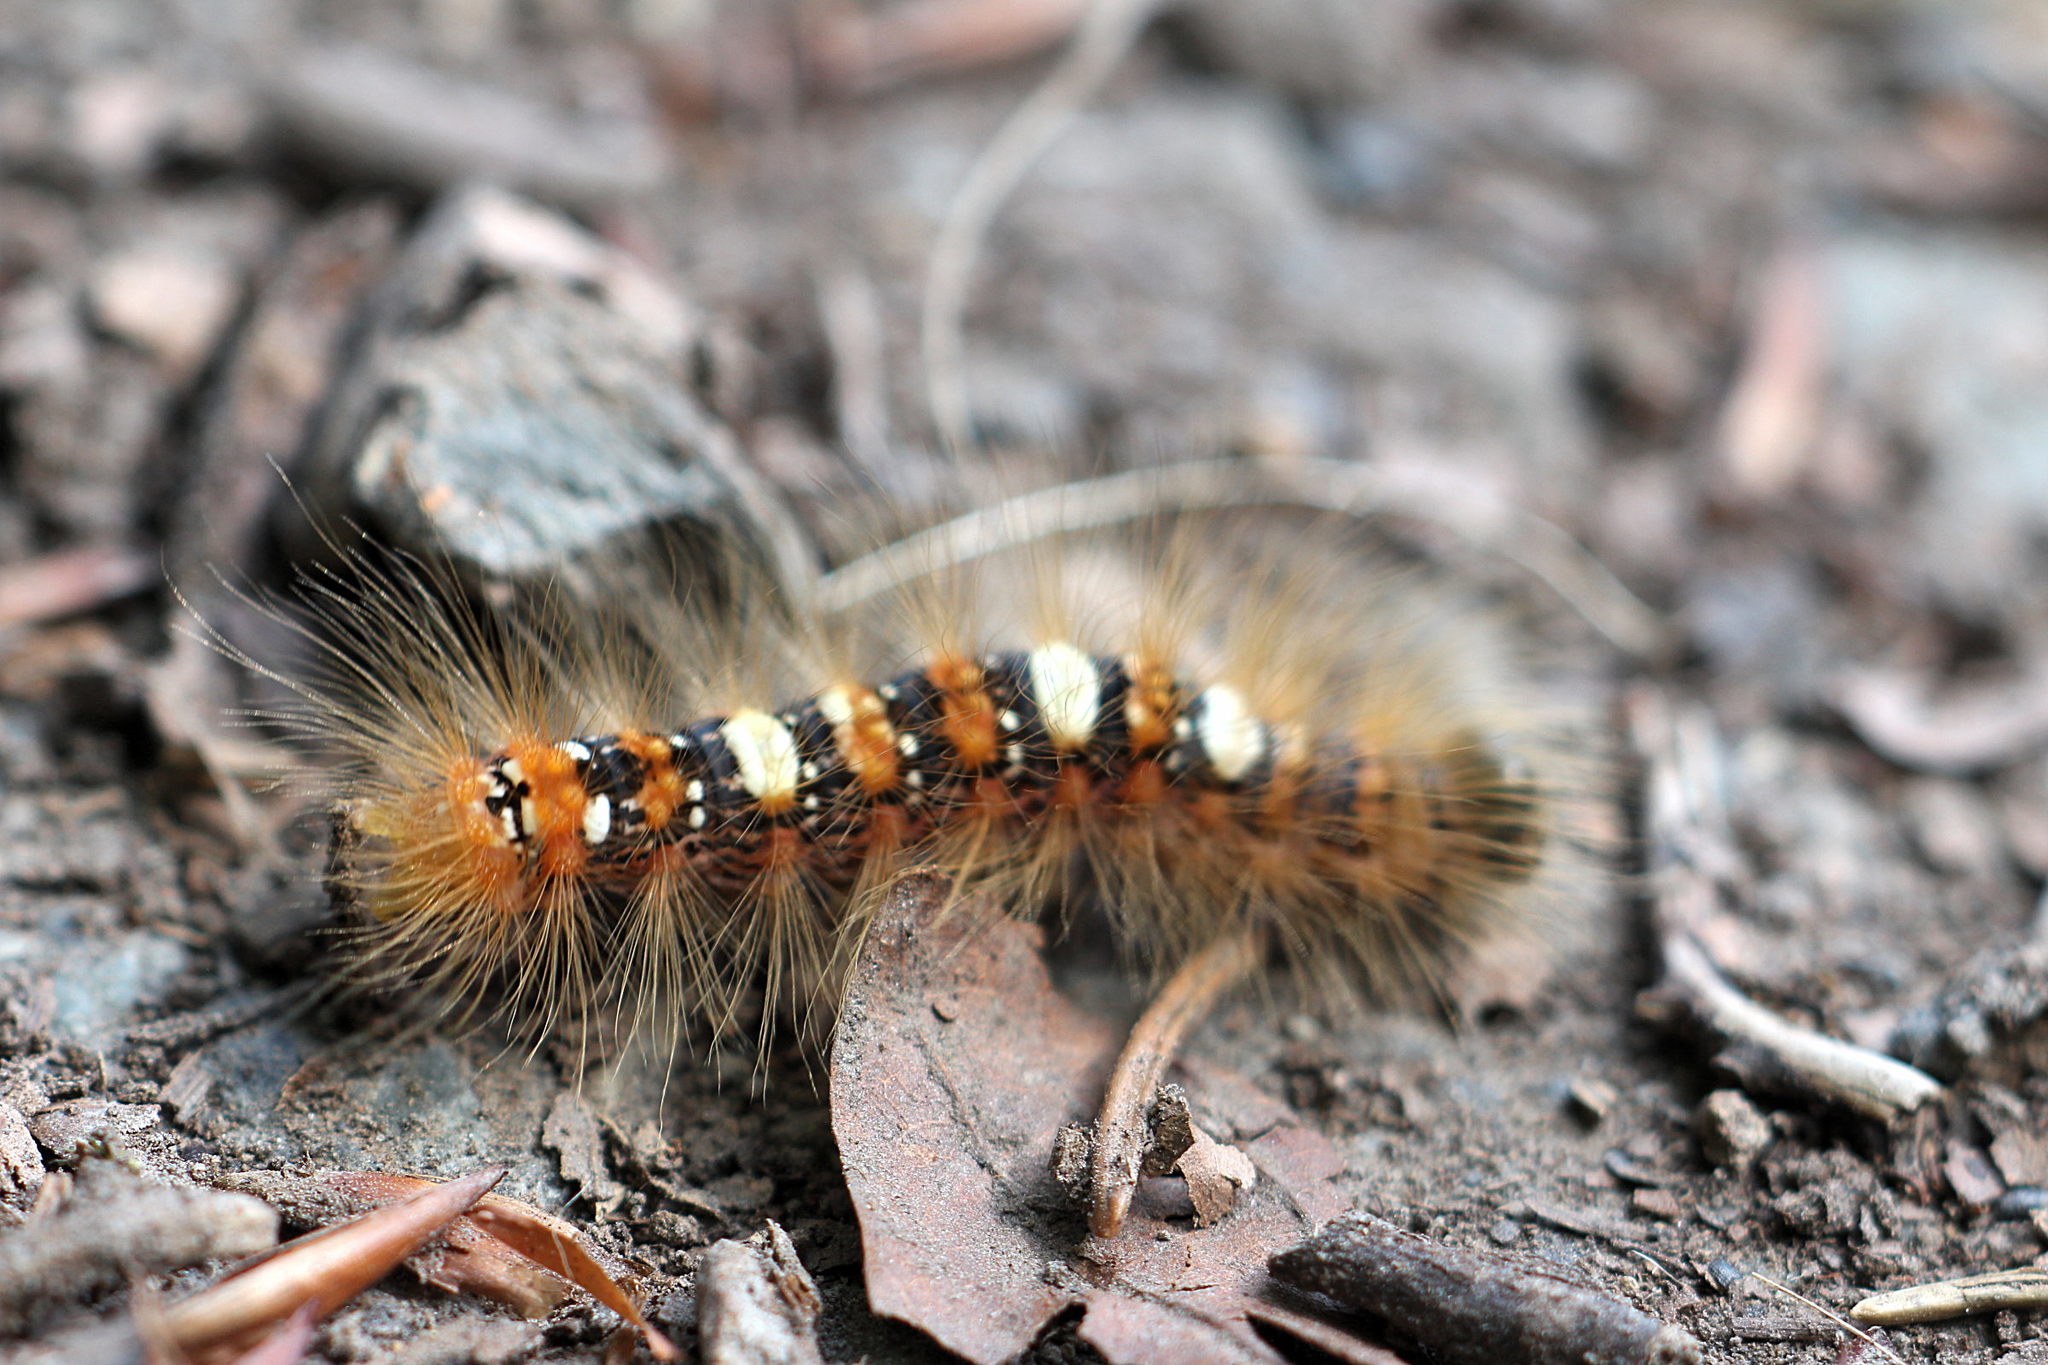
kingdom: Animalia
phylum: Arthropoda
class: Insecta
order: Lepidoptera
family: Noctuidae
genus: Moma
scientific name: Moma alpium
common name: Scarce merveille du jour
